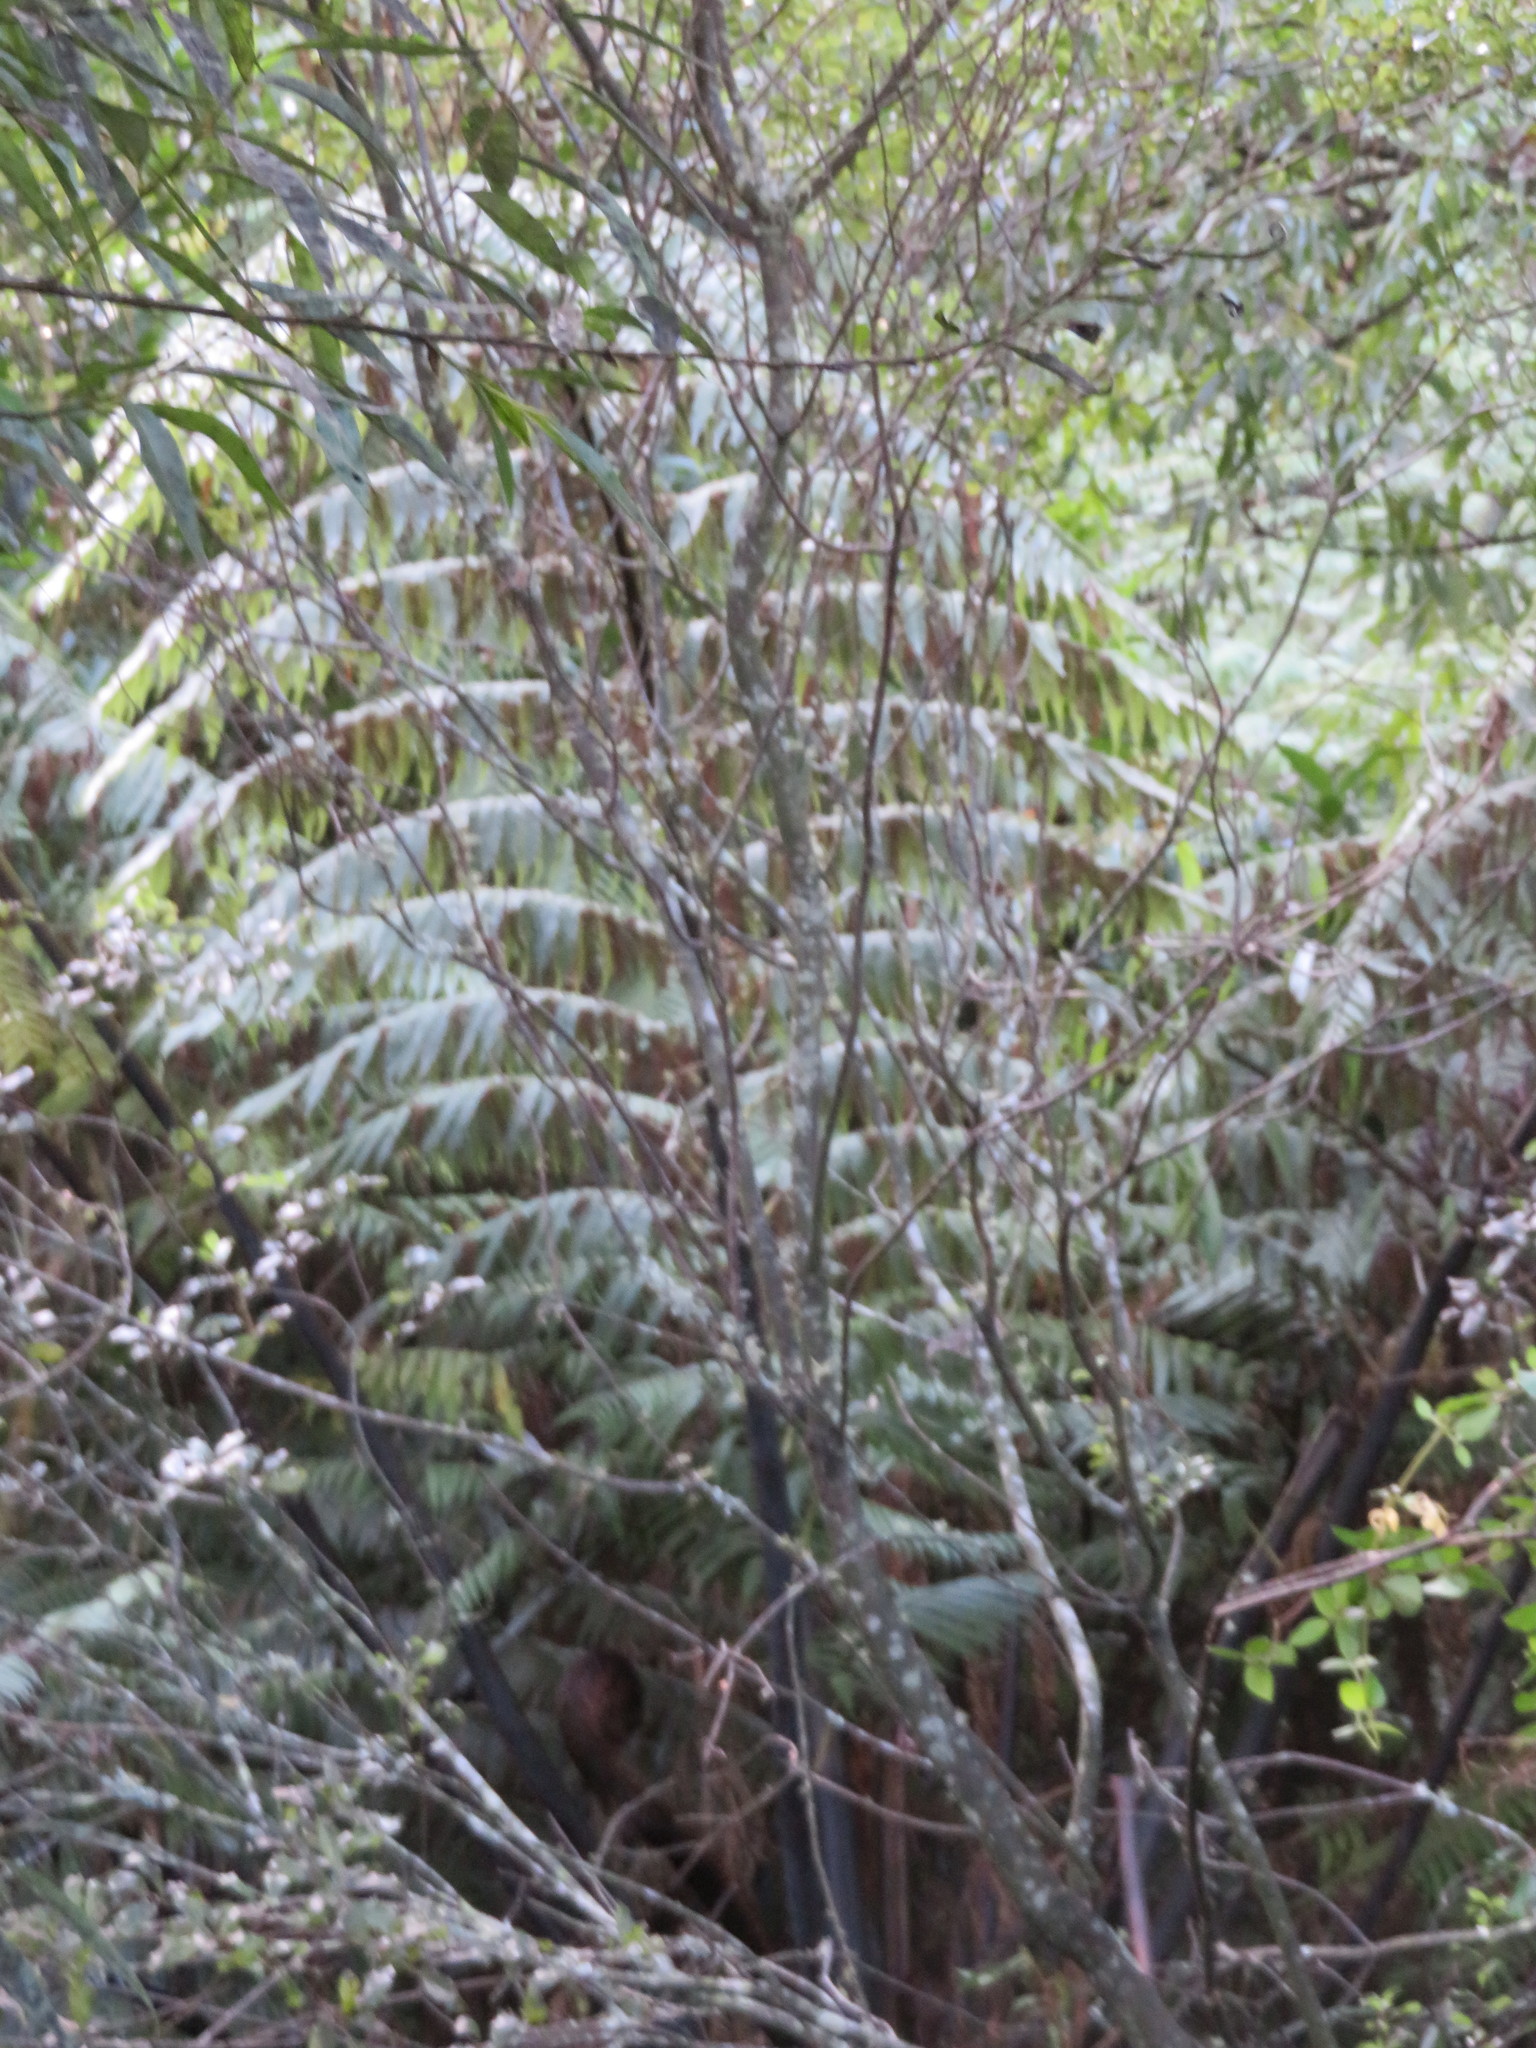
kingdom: Plantae
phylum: Tracheophyta
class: Polypodiopsida
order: Cyatheales
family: Cyatheaceae
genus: Sphaeropteris
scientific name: Sphaeropteris medullaris
